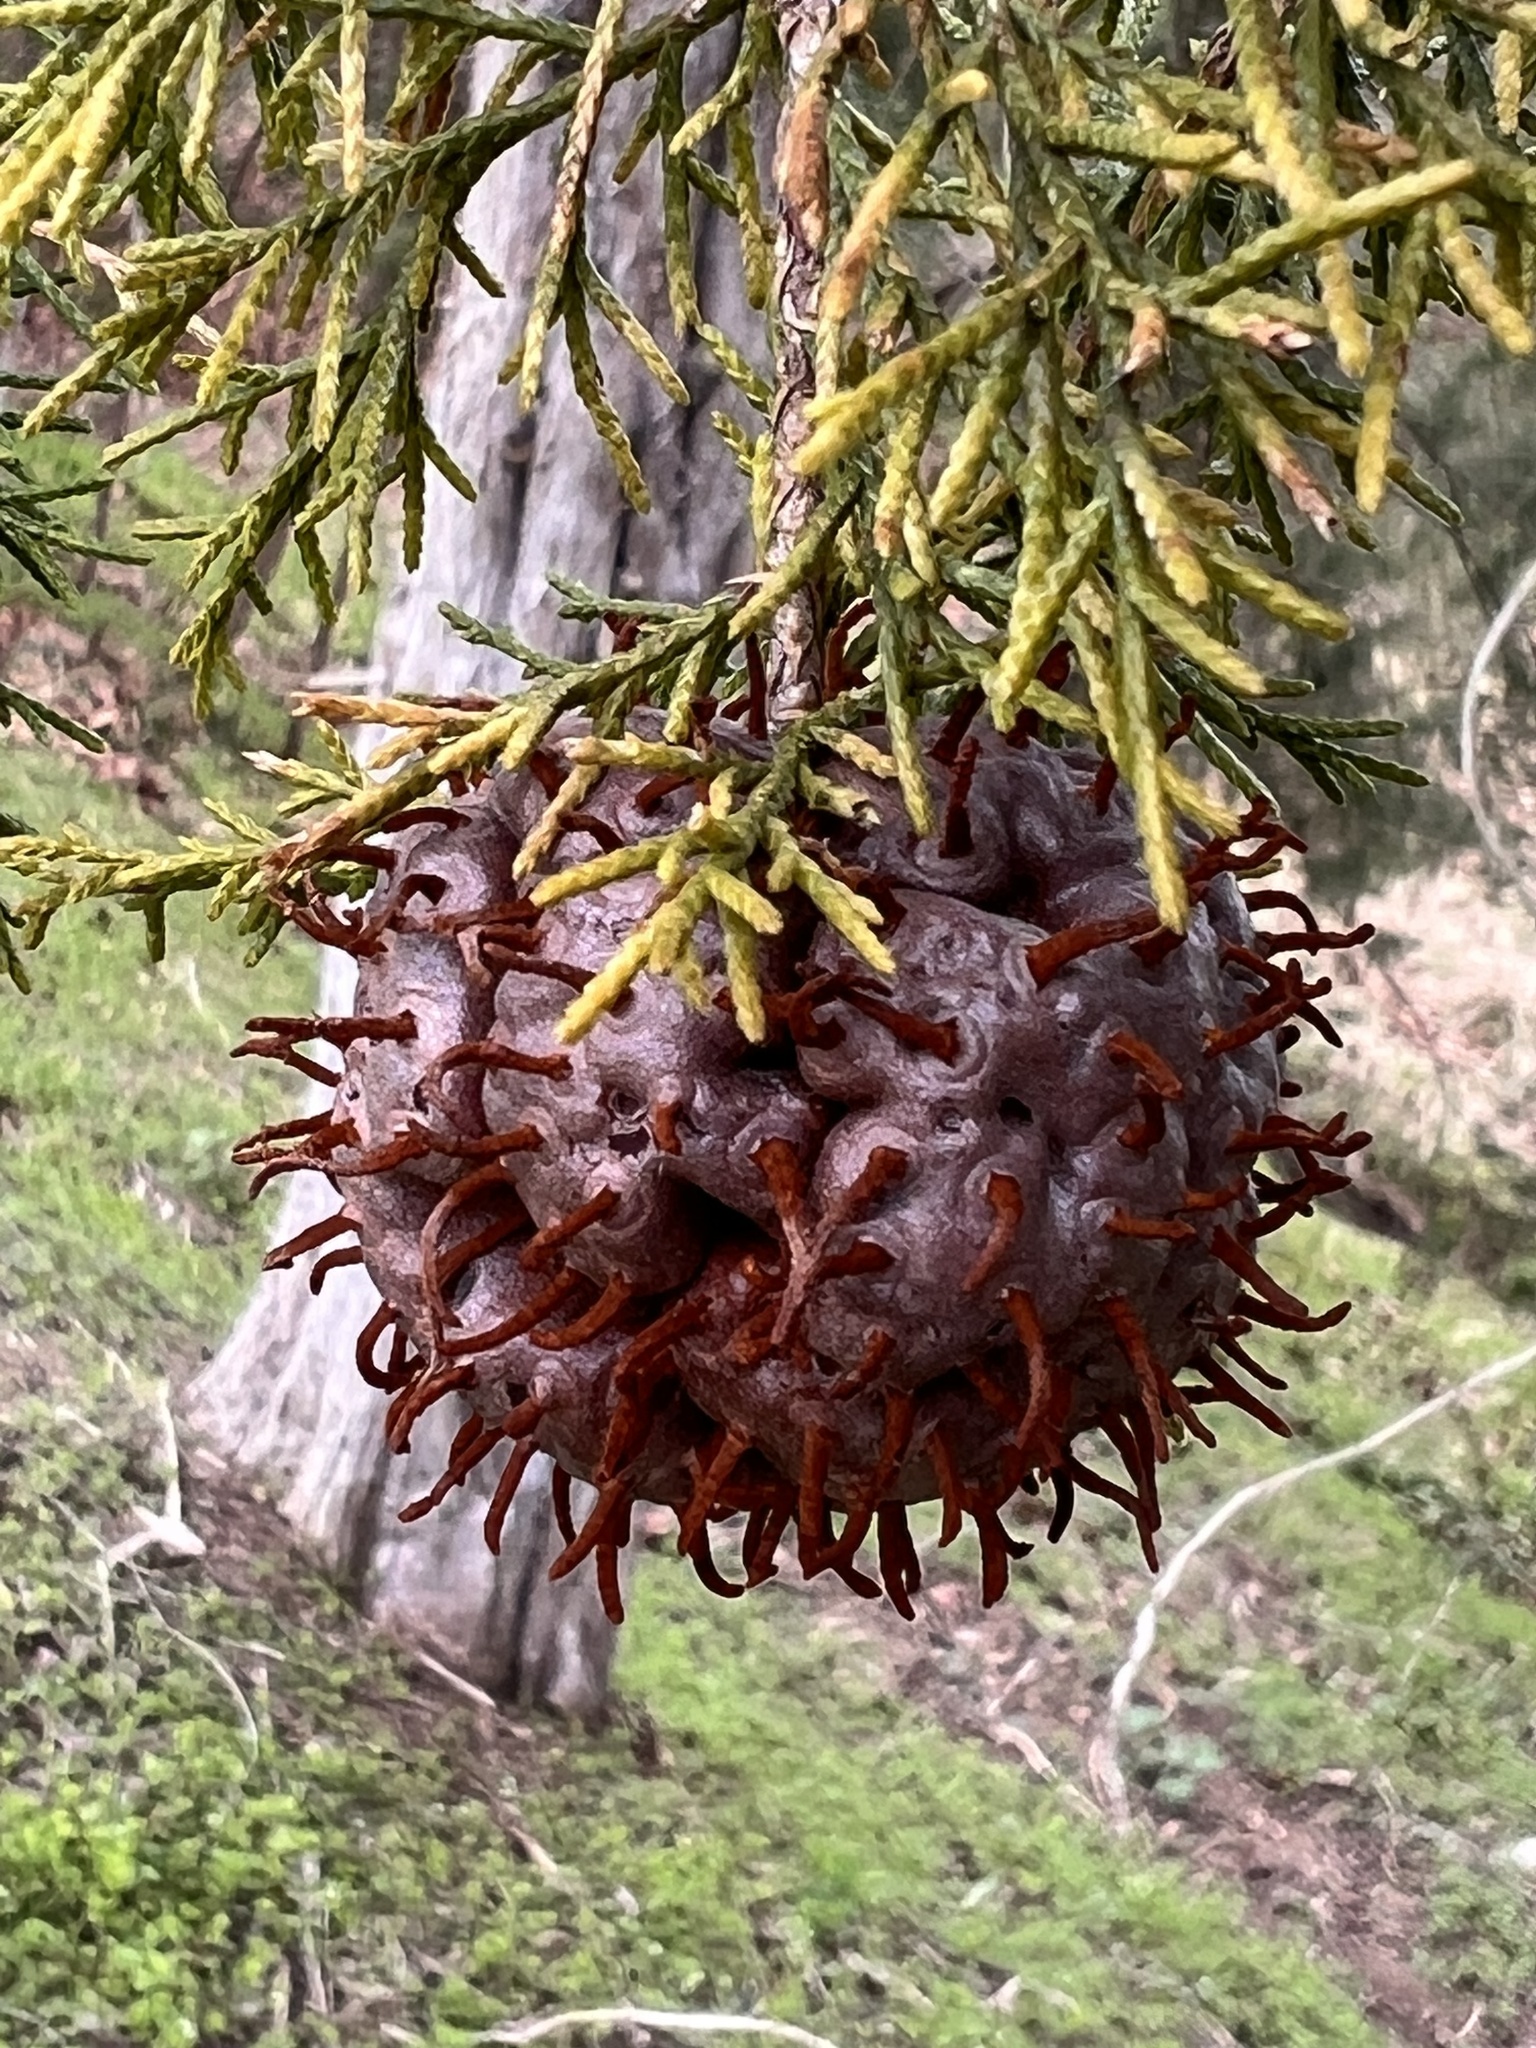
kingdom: Fungi
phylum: Basidiomycota
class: Pucciniomycetes
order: Pucciniales
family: Gymnosporangiaceae
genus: Gymnosporangium
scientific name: Gymnosporangium juniperi-virginianae
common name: Juniper-apple rust
